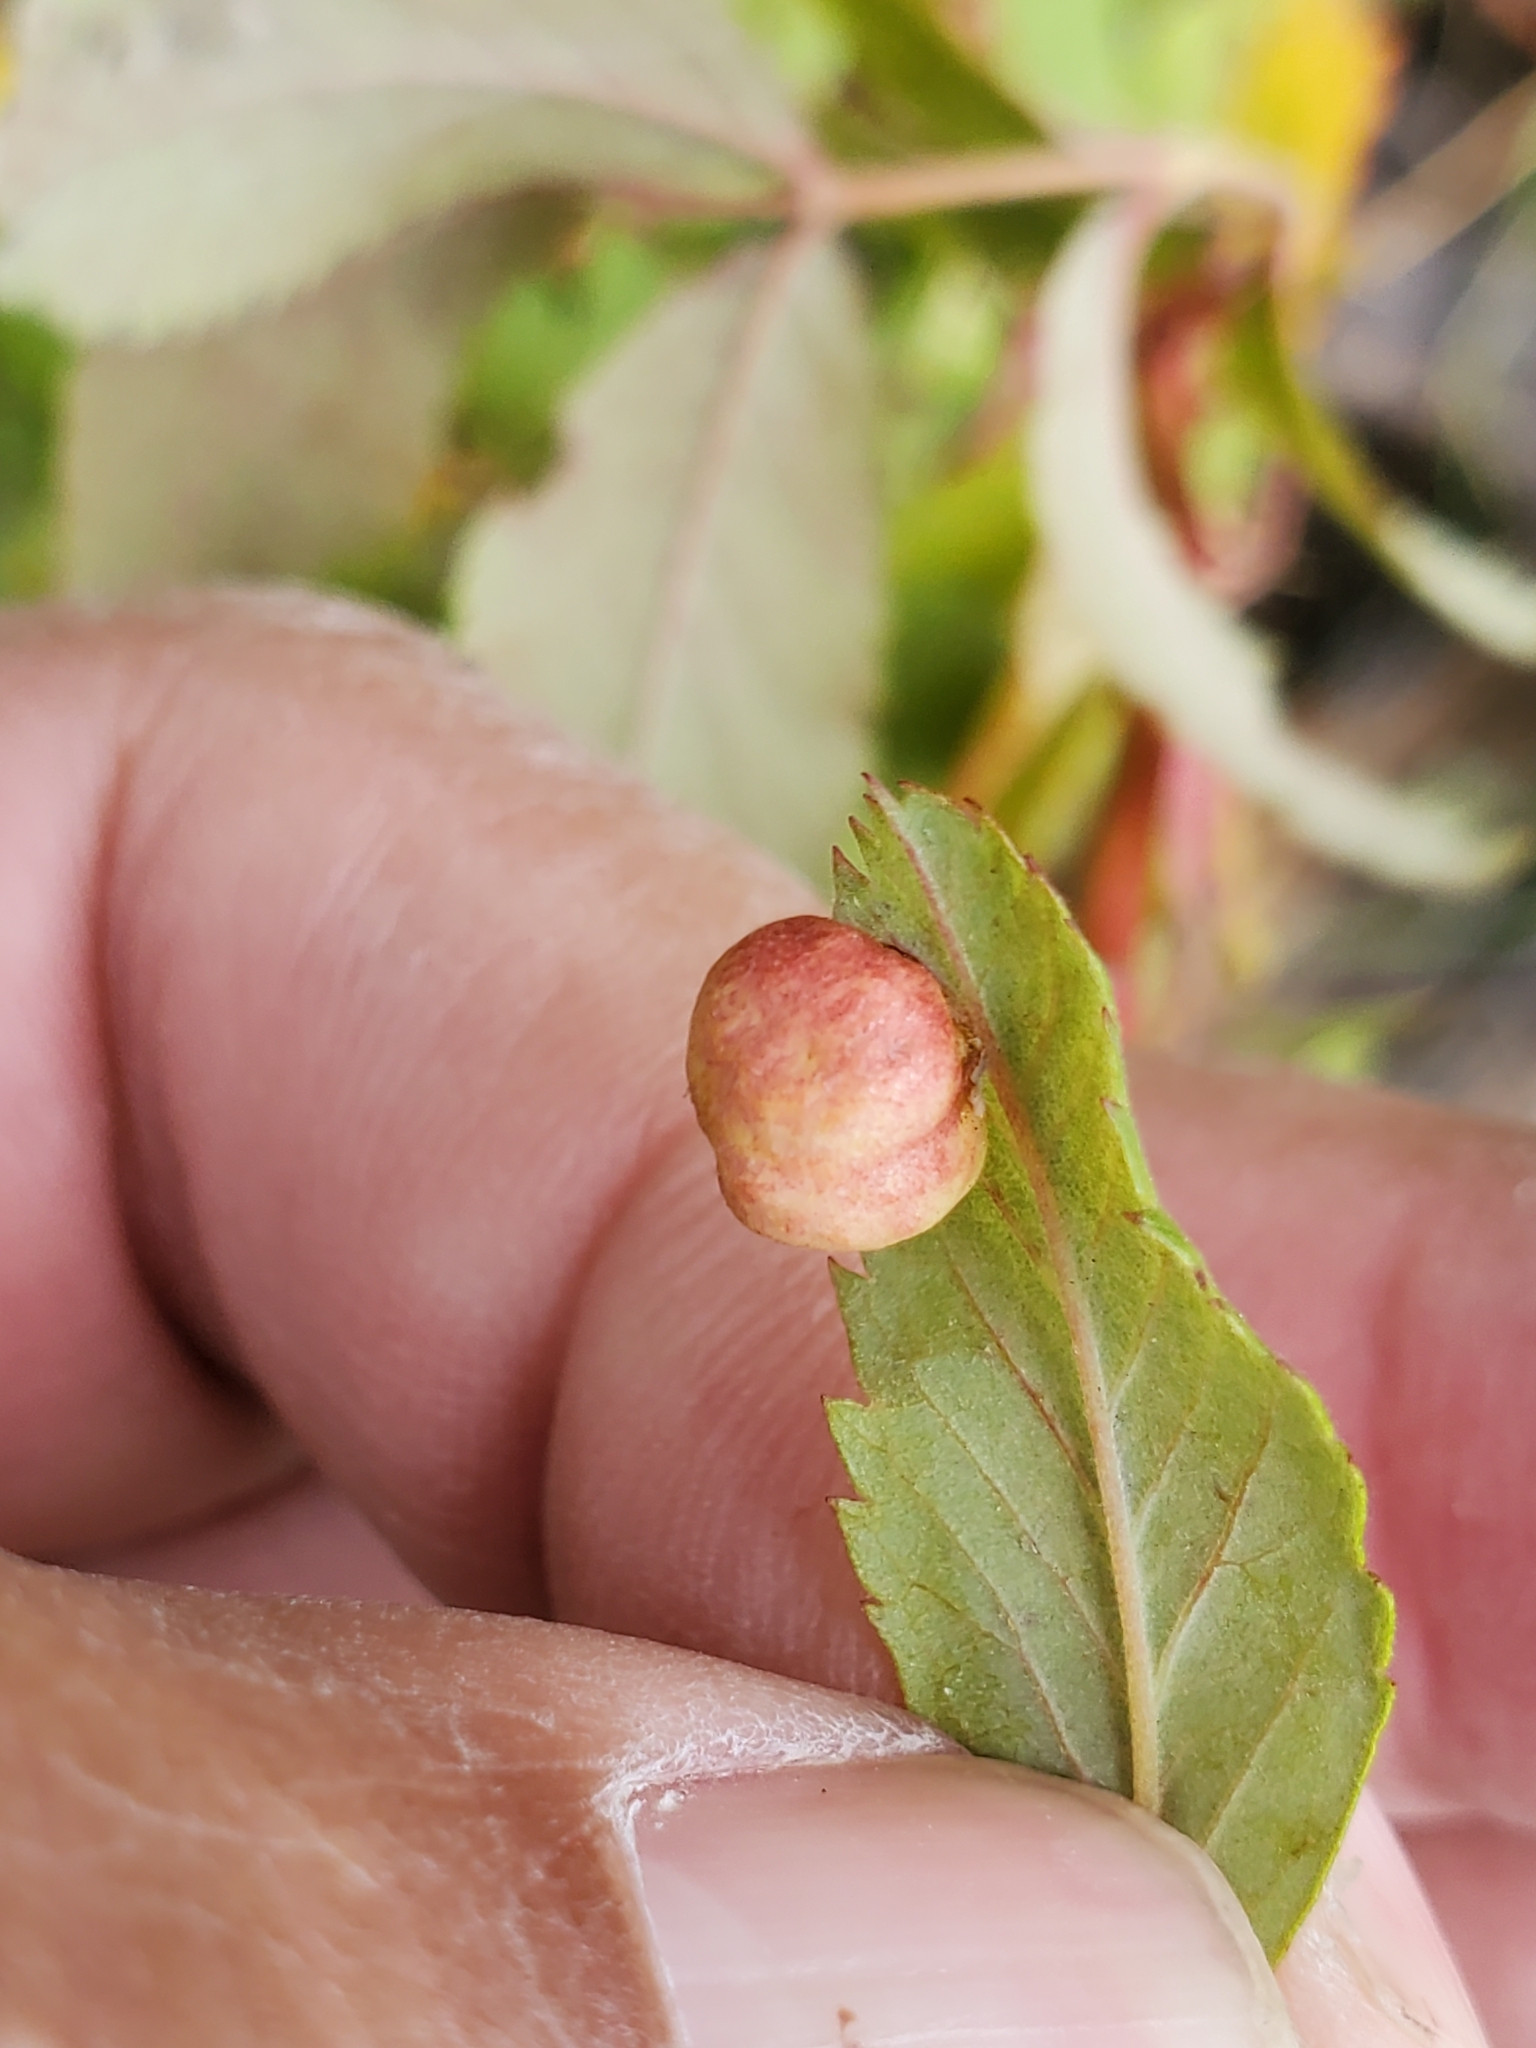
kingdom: Animalia
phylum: Arthropoda
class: Insecta
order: Hymenoptera
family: Cynipidae
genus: Diplolepis
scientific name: Diplolepis ignota
